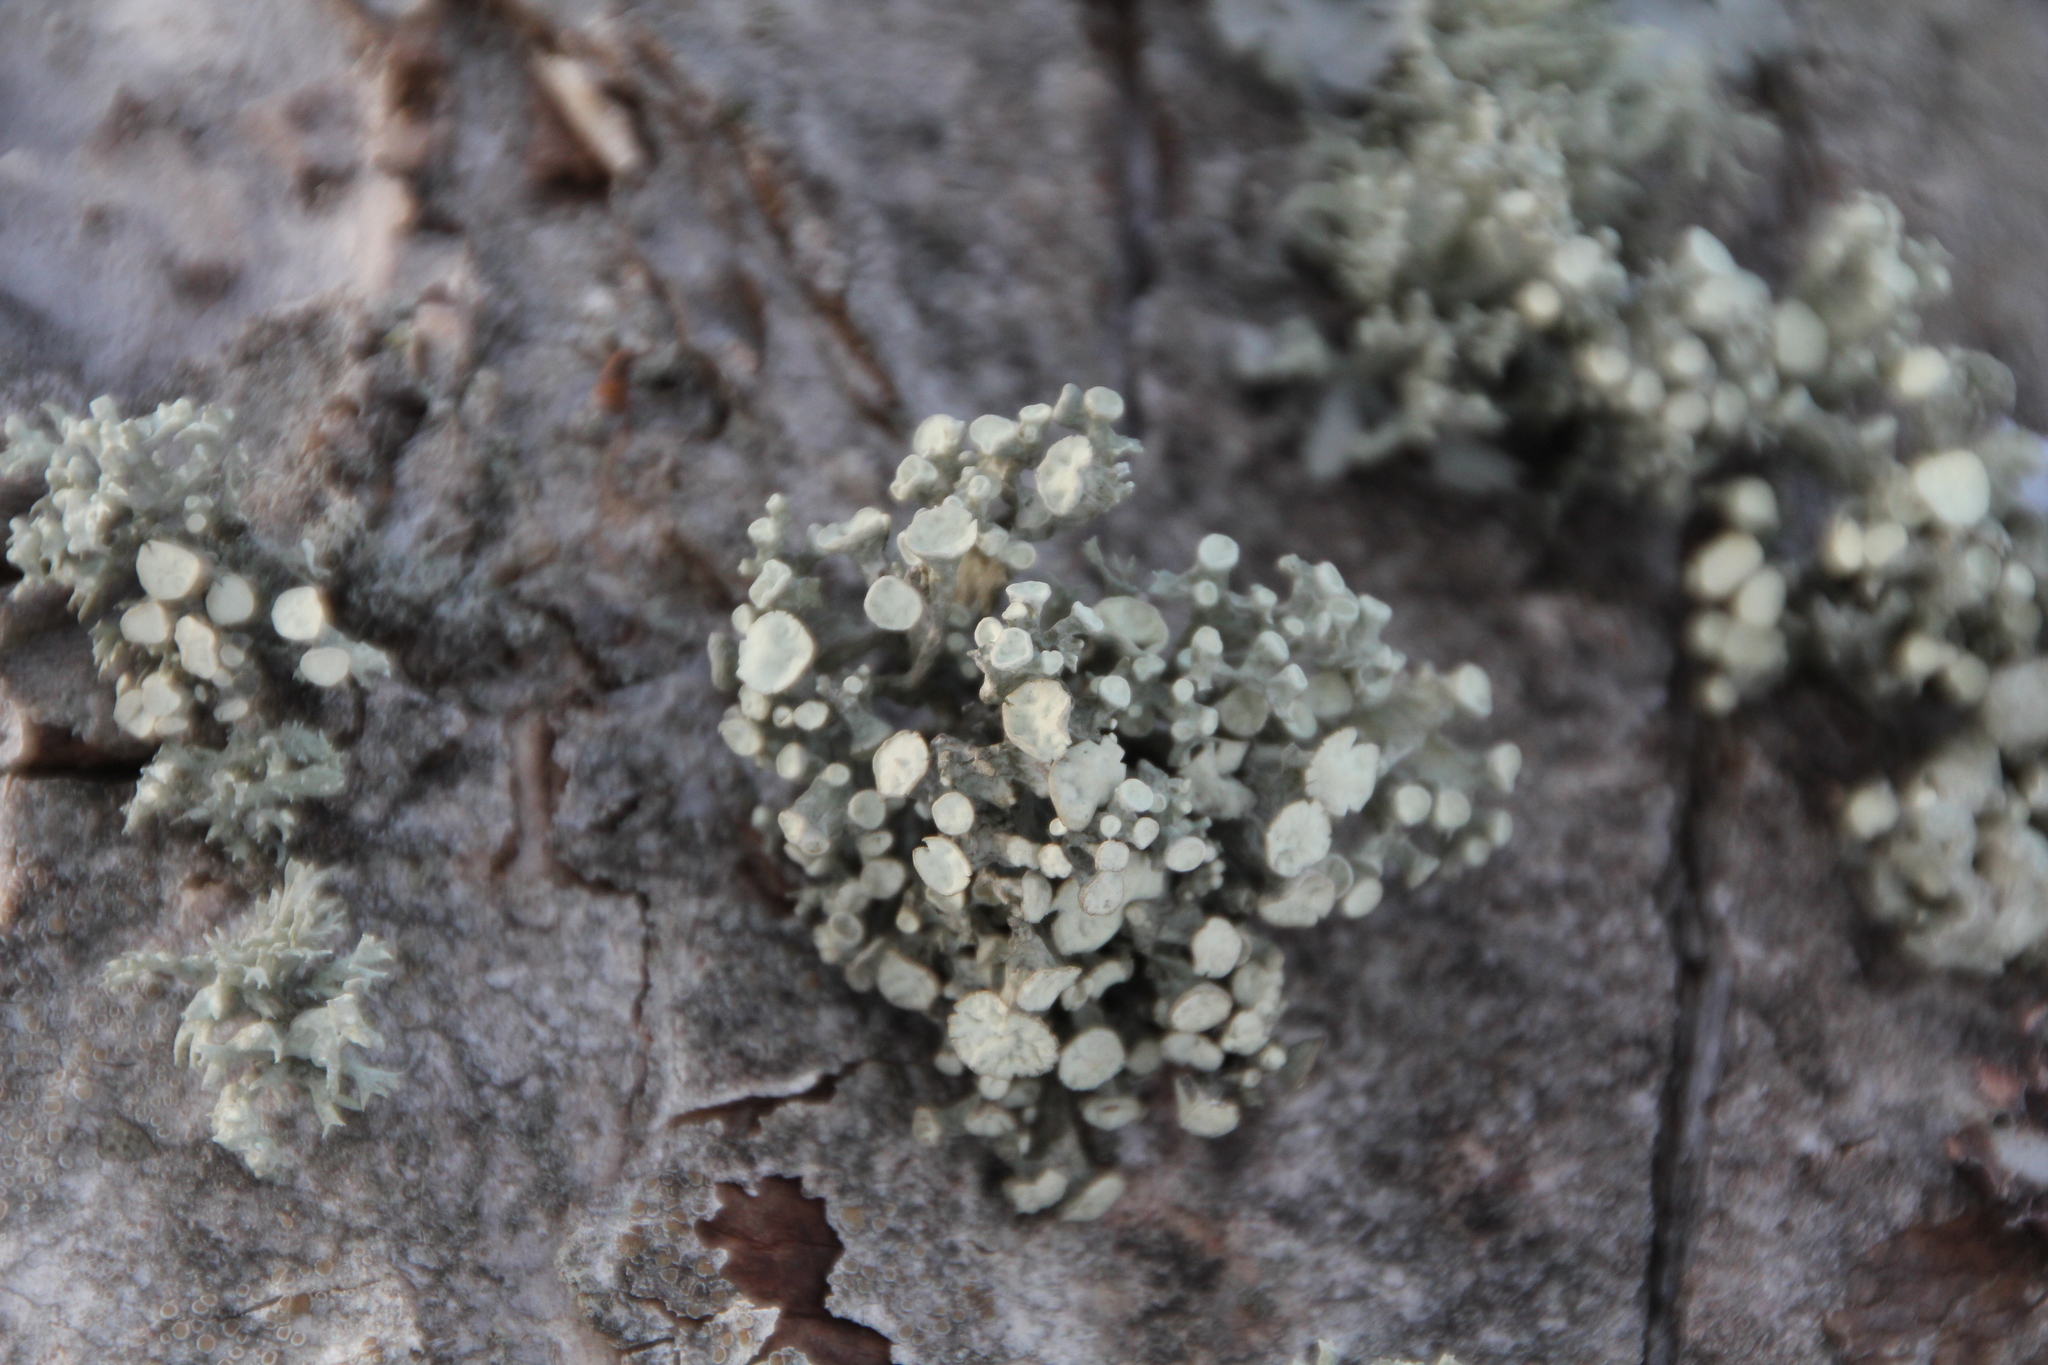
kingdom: Fungi
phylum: Ascomycota
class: Lecanoromycetes
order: Lecanorales
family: Ramalinaceae
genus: Ramalina
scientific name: Ramalina fastigiata
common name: Dotted ribbon lichen
